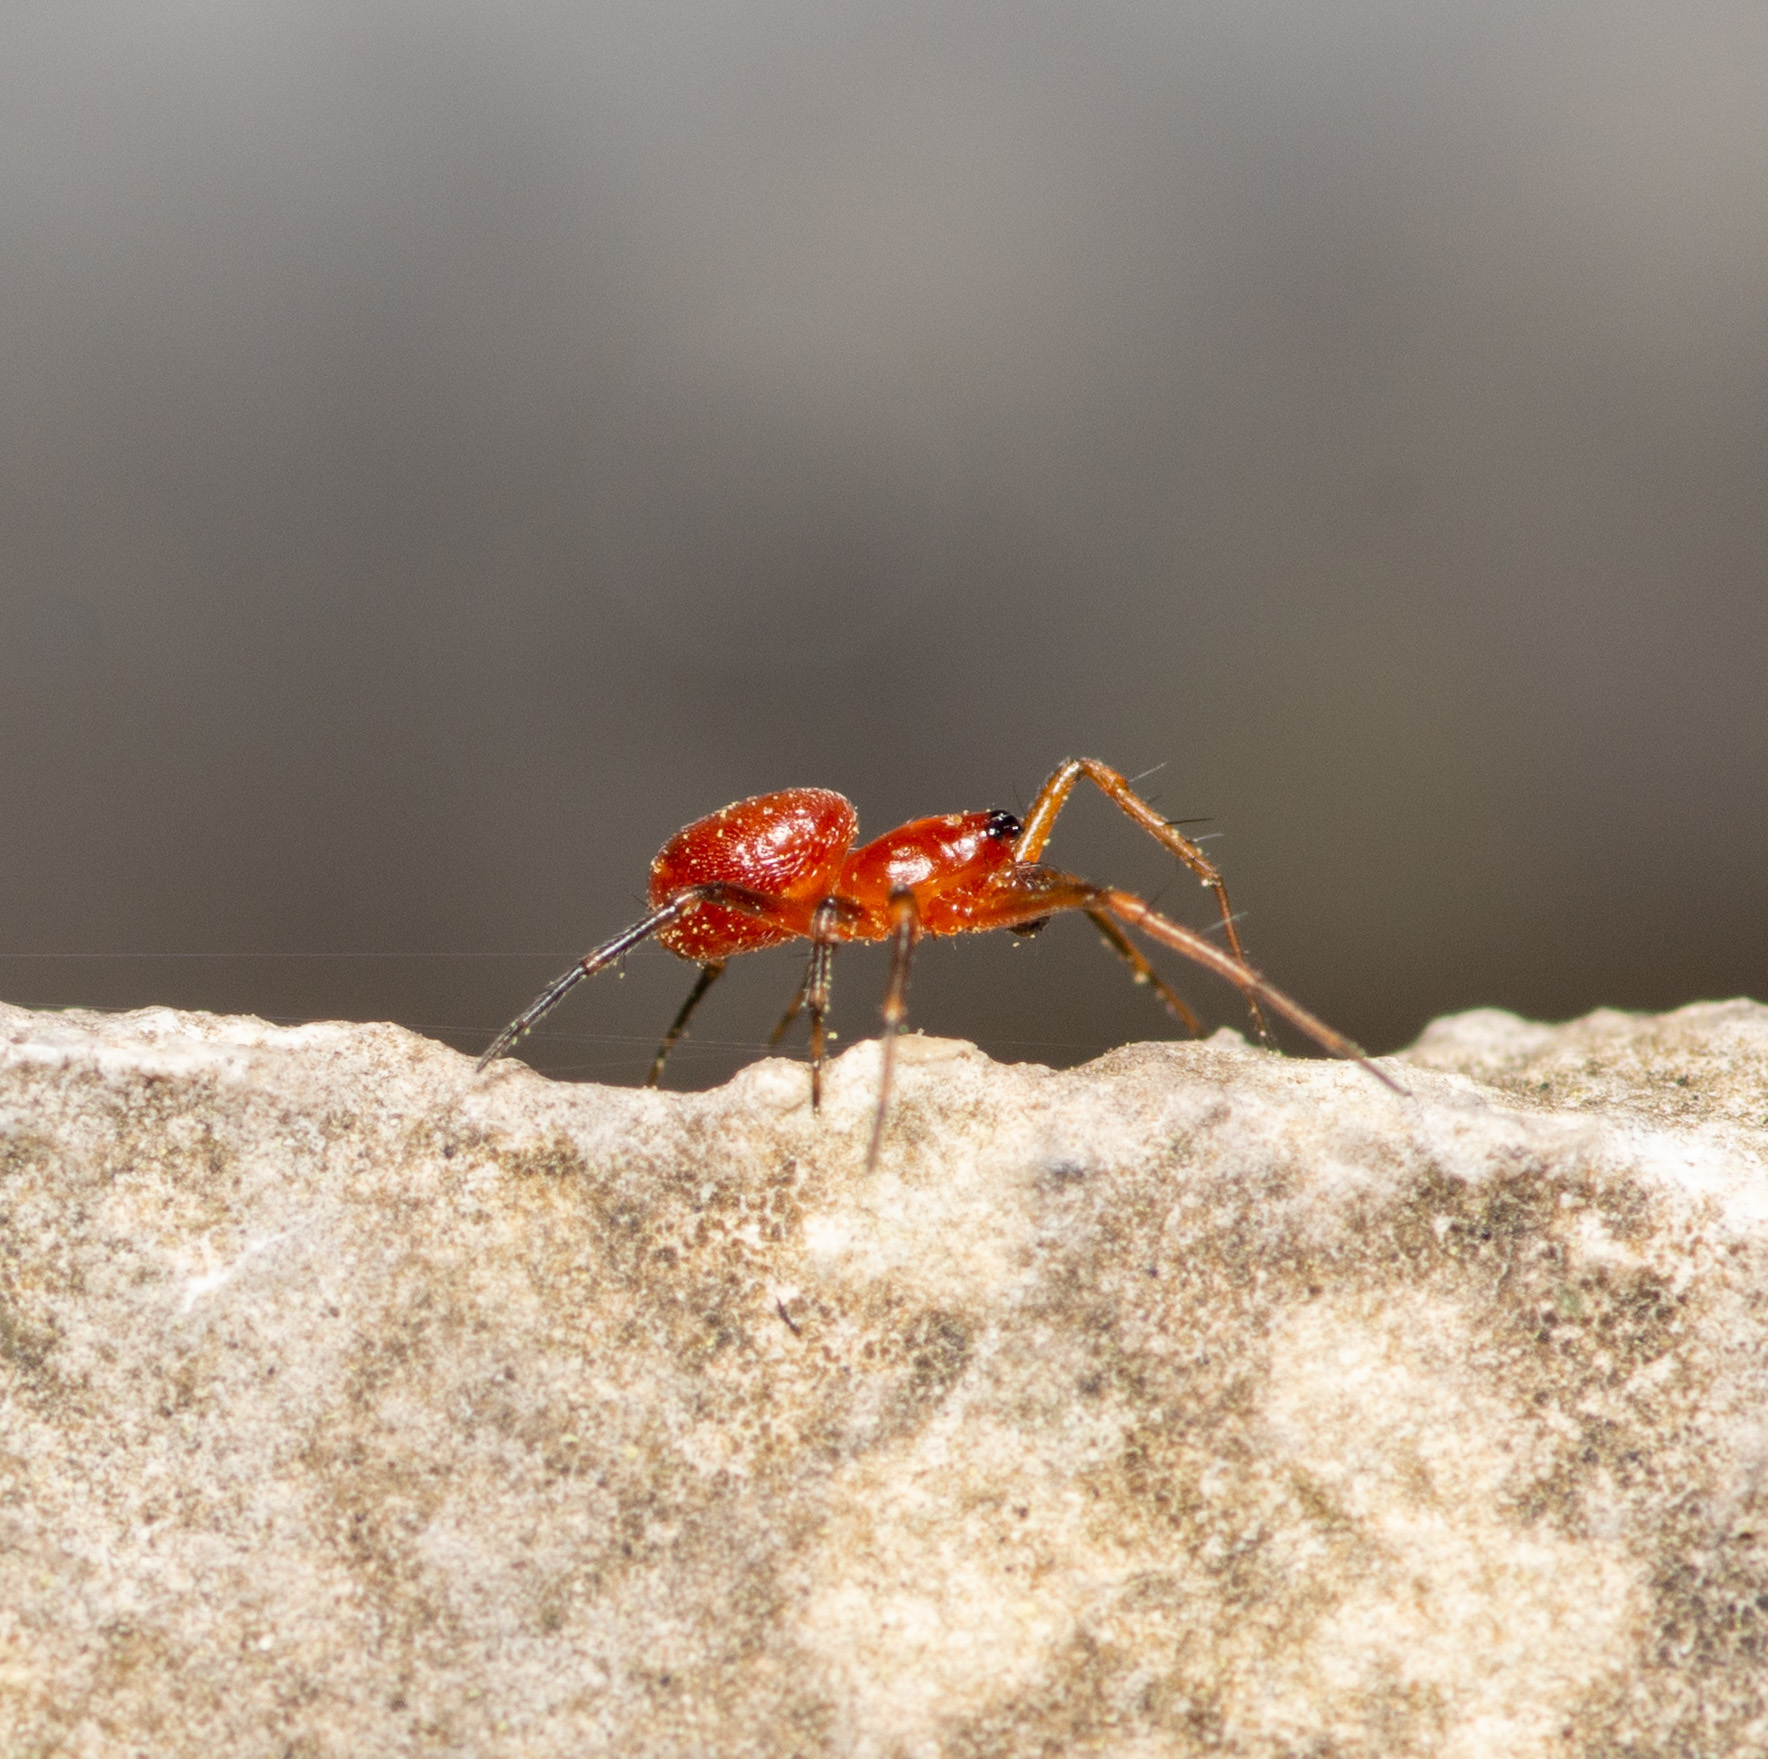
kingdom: Animalia
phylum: Arthropoda
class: Arachnida
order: Araneae
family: Araneidae
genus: Hypsosinga
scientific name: Hypsosinga rubens
